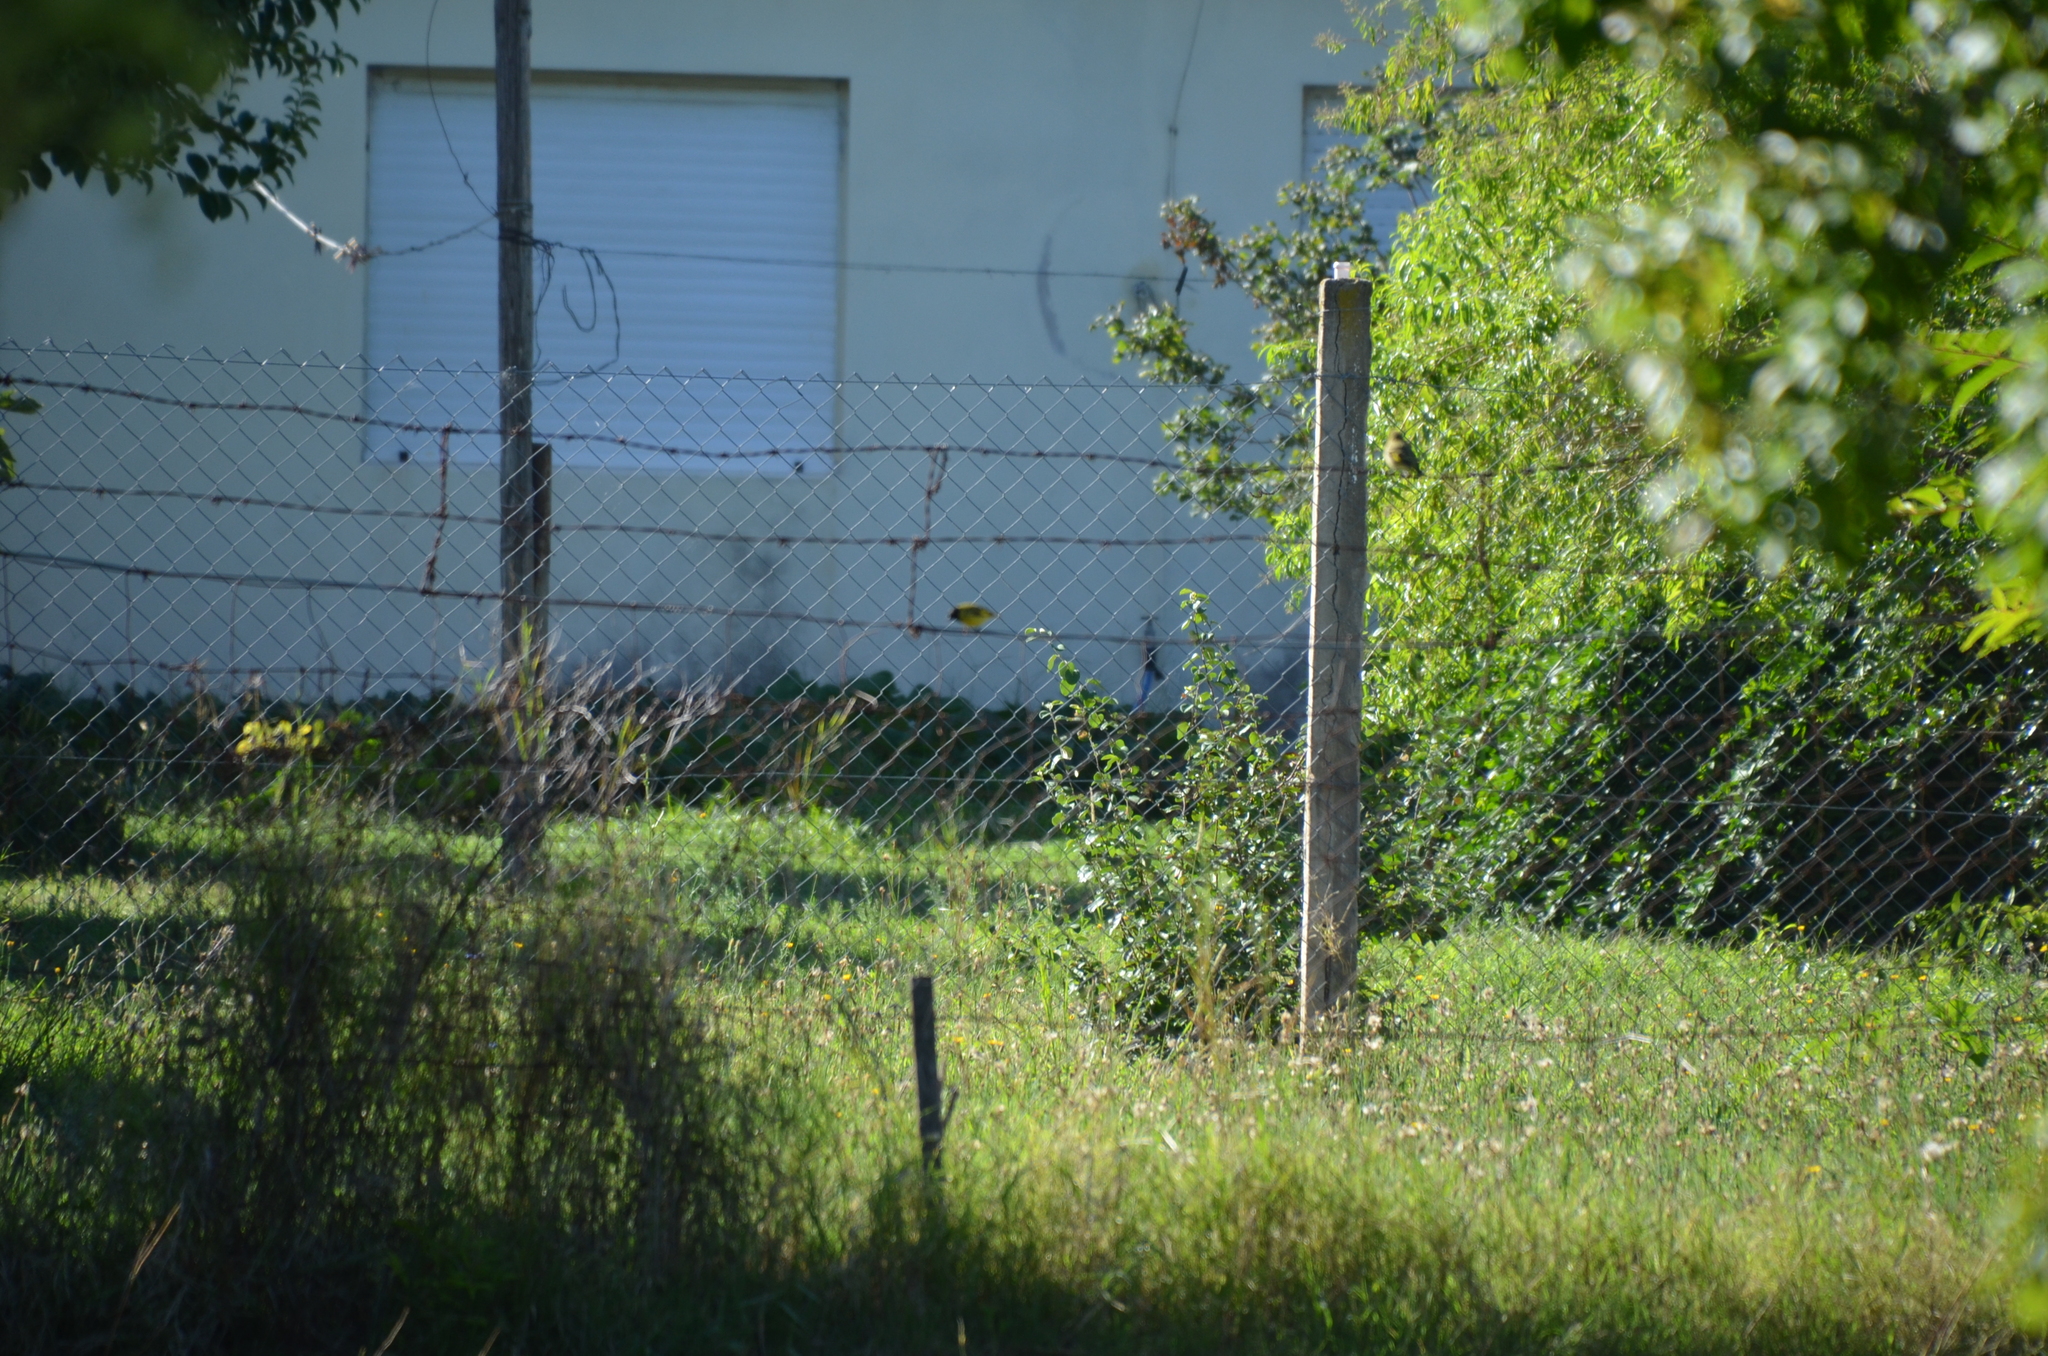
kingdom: Animalia
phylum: Chordata
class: Aves
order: Passeriformes
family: Fringillidae
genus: Spinus
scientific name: Spinus magellanicus
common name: Hooded siskin
